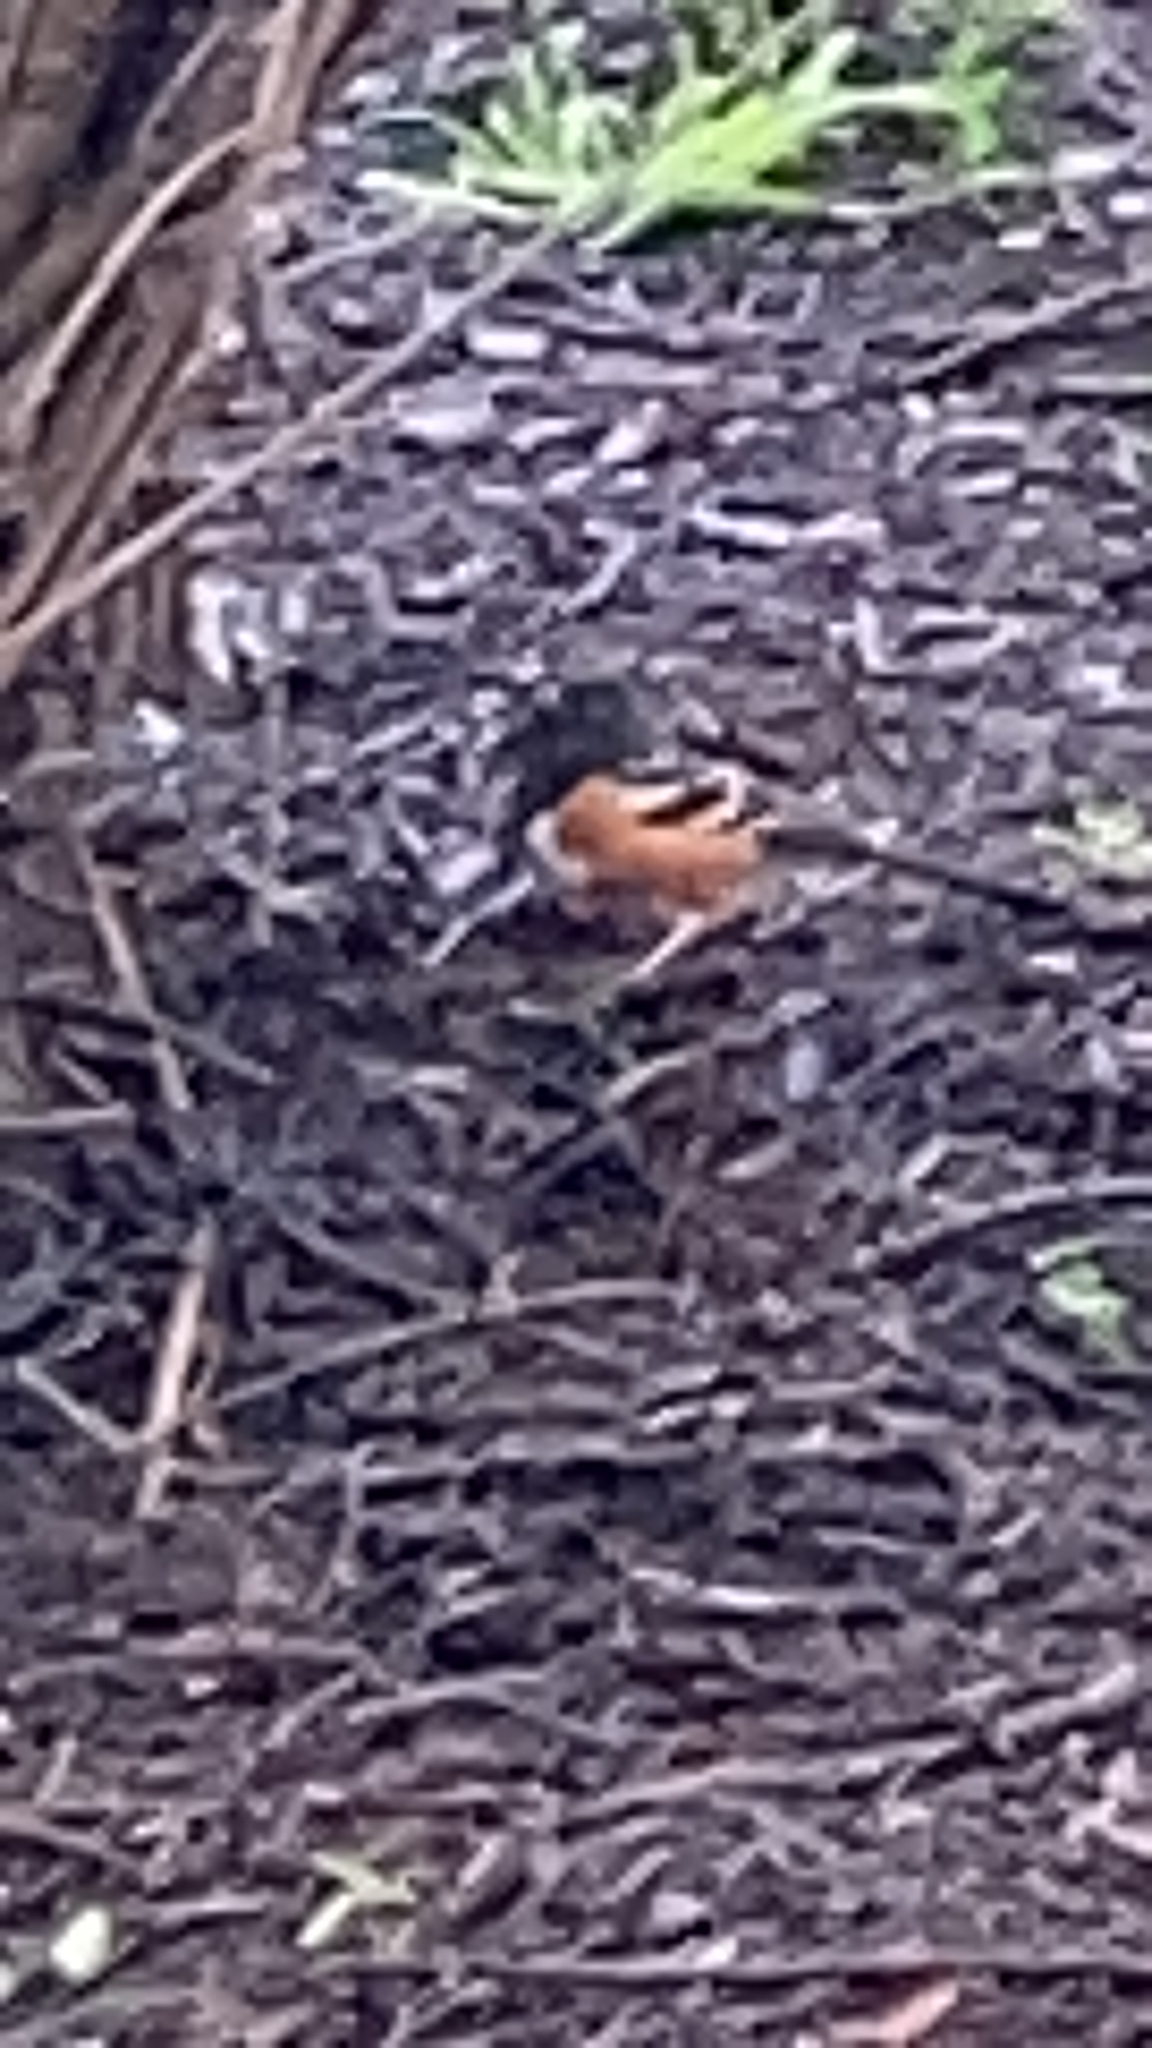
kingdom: Animalia
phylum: Chordata
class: Aves
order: Passeriformes
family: Passerellidae
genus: Pipilo
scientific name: Pipilo maculatus
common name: Spotted towhee
